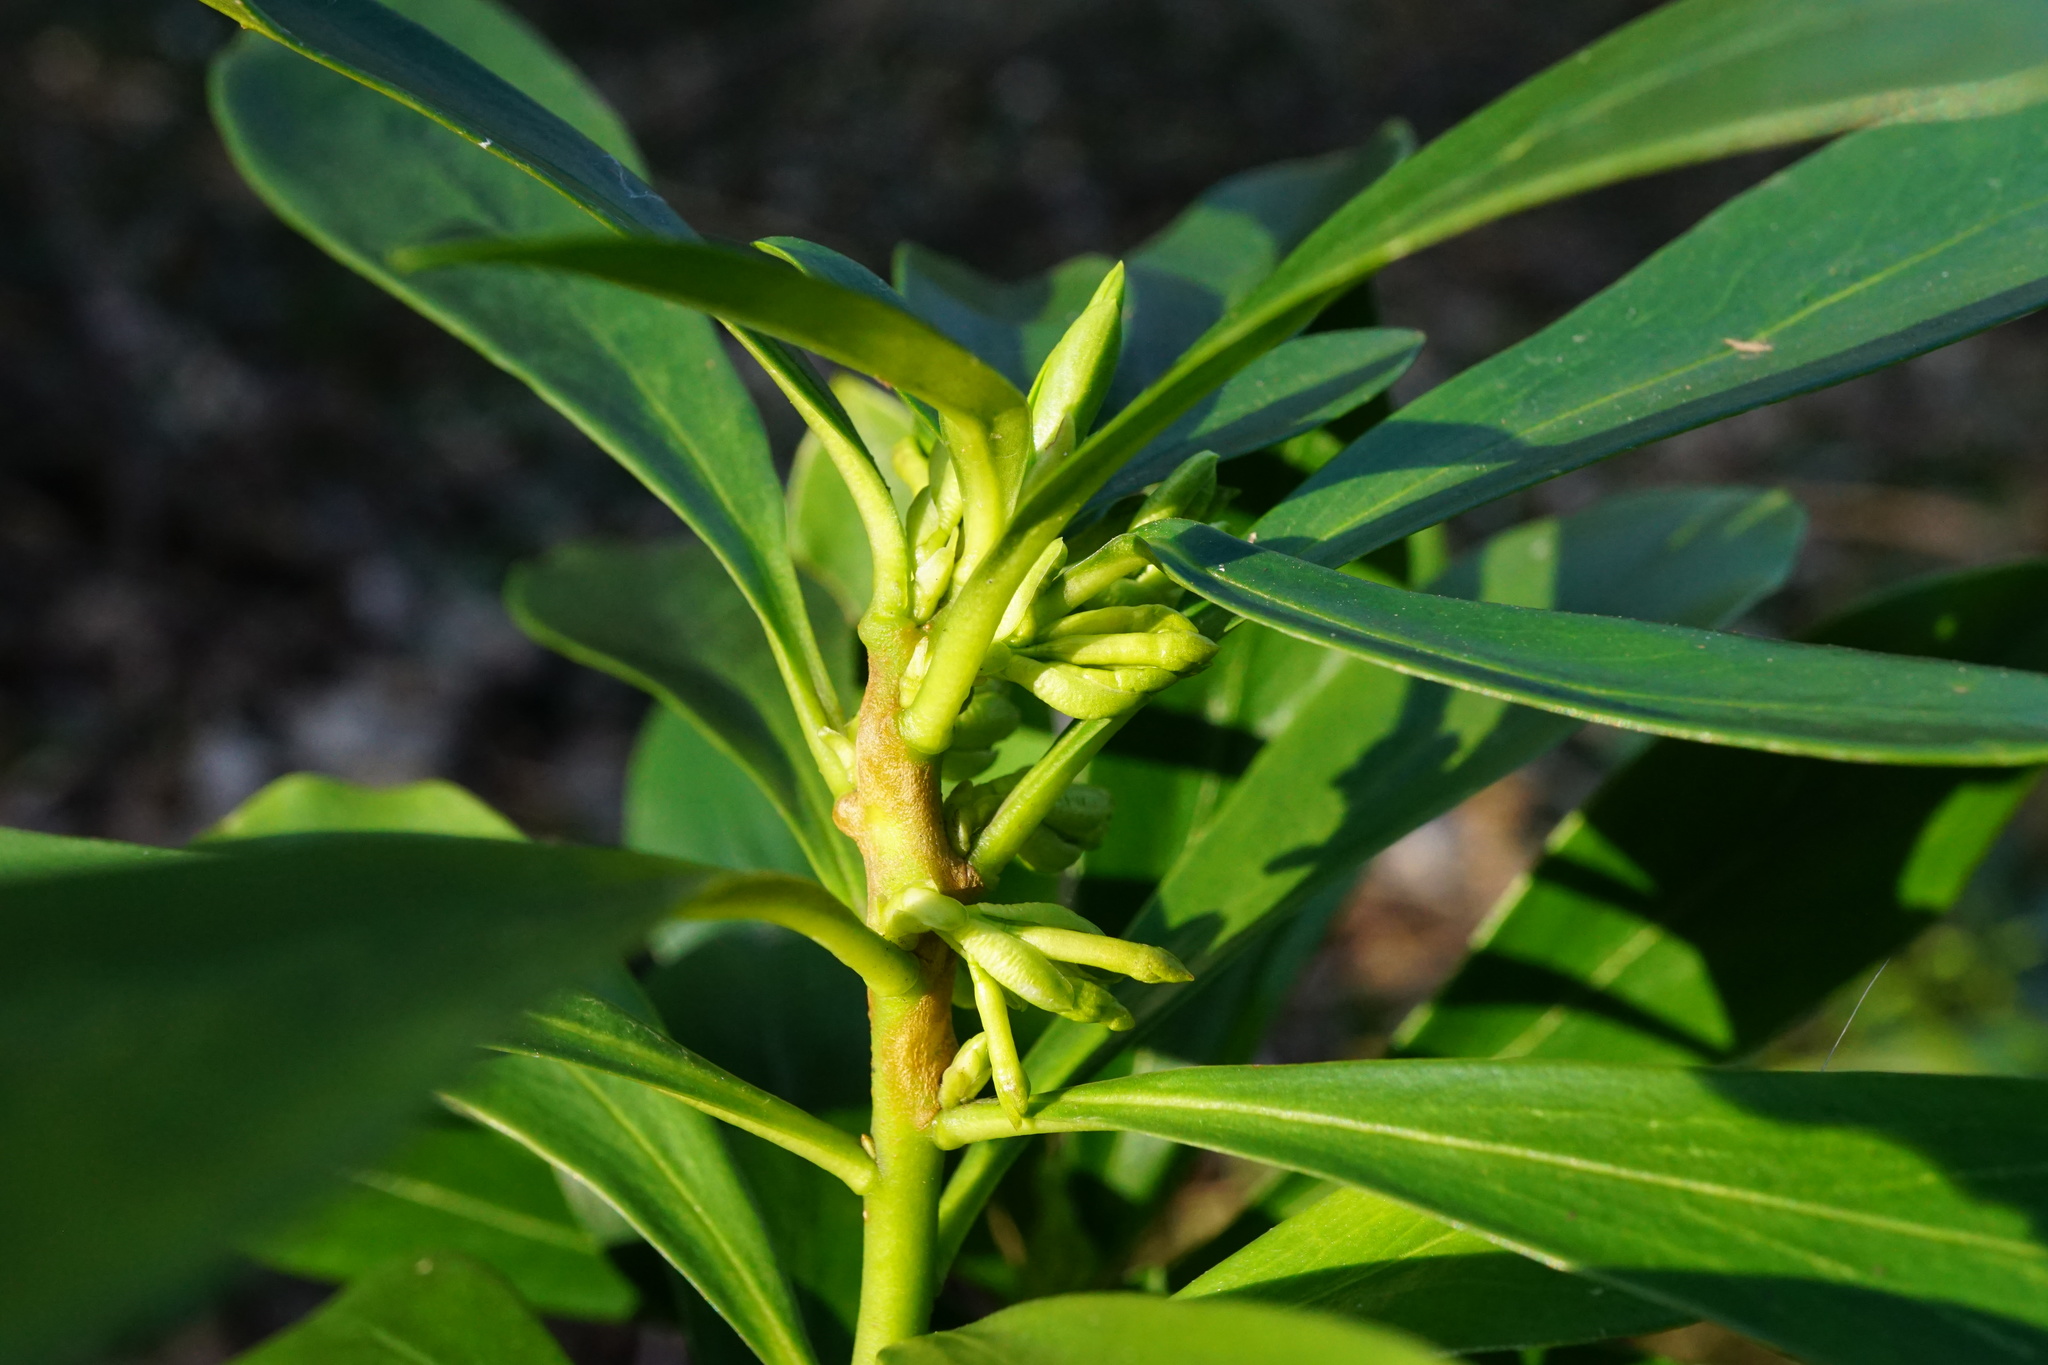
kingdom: Plantae
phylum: Tracheophyta
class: Magnoliopsida
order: Malvales
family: Thymelaeaceae
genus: Daphne
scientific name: Daphne laureola
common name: Spurge-laurel
